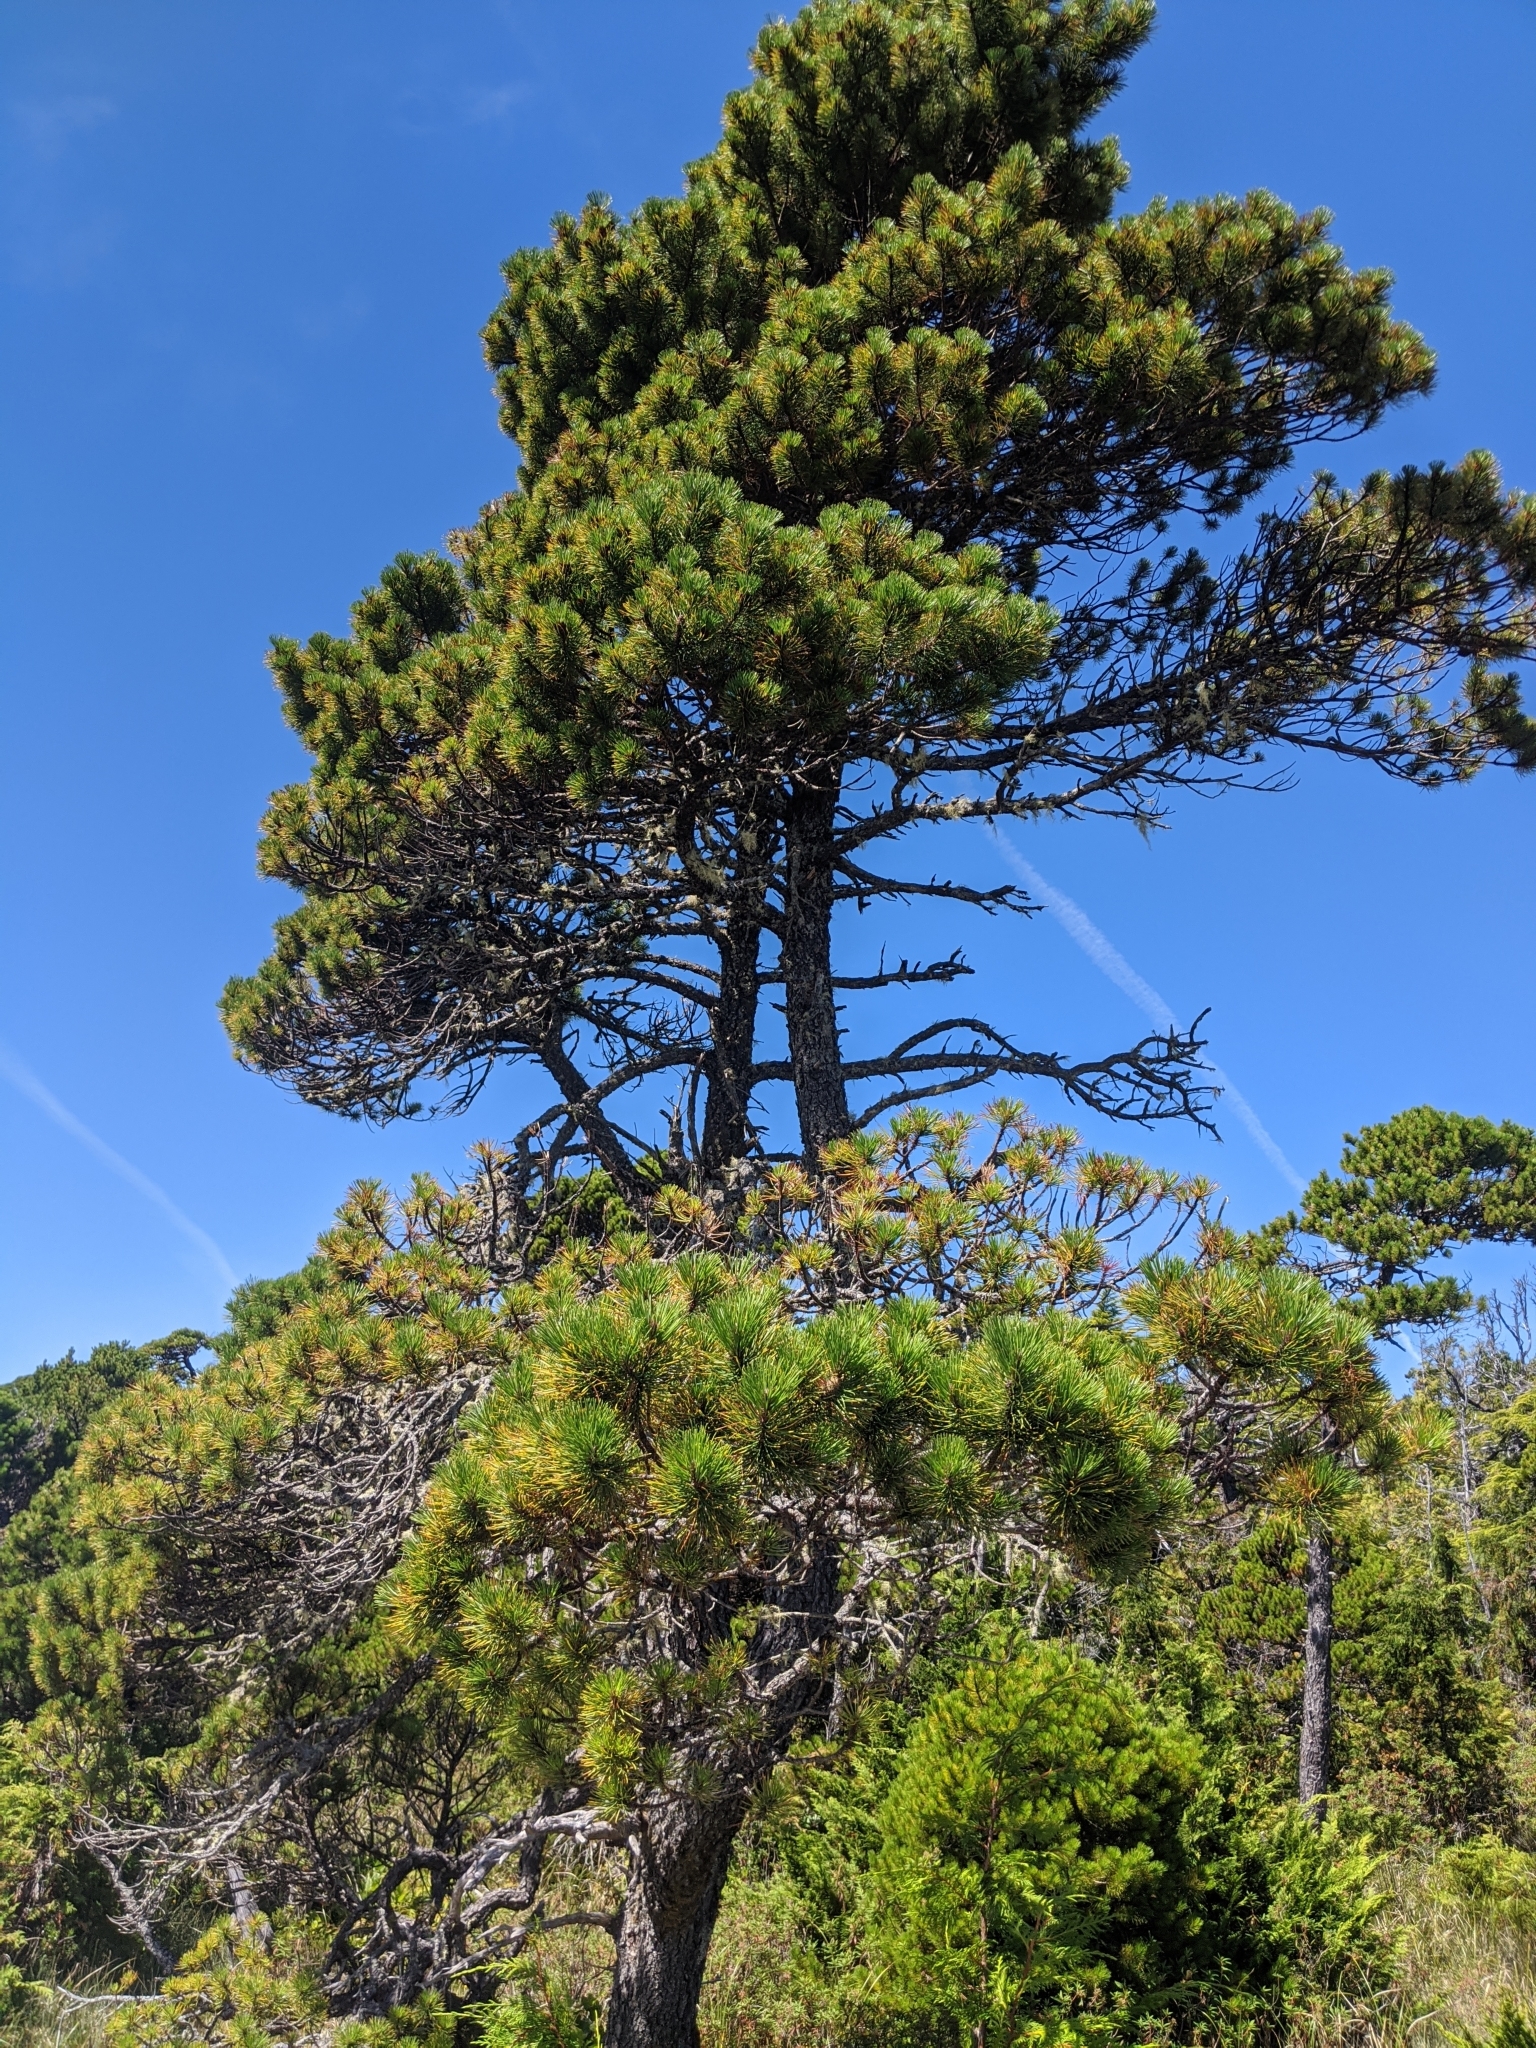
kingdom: Plantae
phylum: Tracheophyta
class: Pinopsida
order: Pinales
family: Pinaceae
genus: Pinus
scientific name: Pinus contorta
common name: Lodgepole pine
